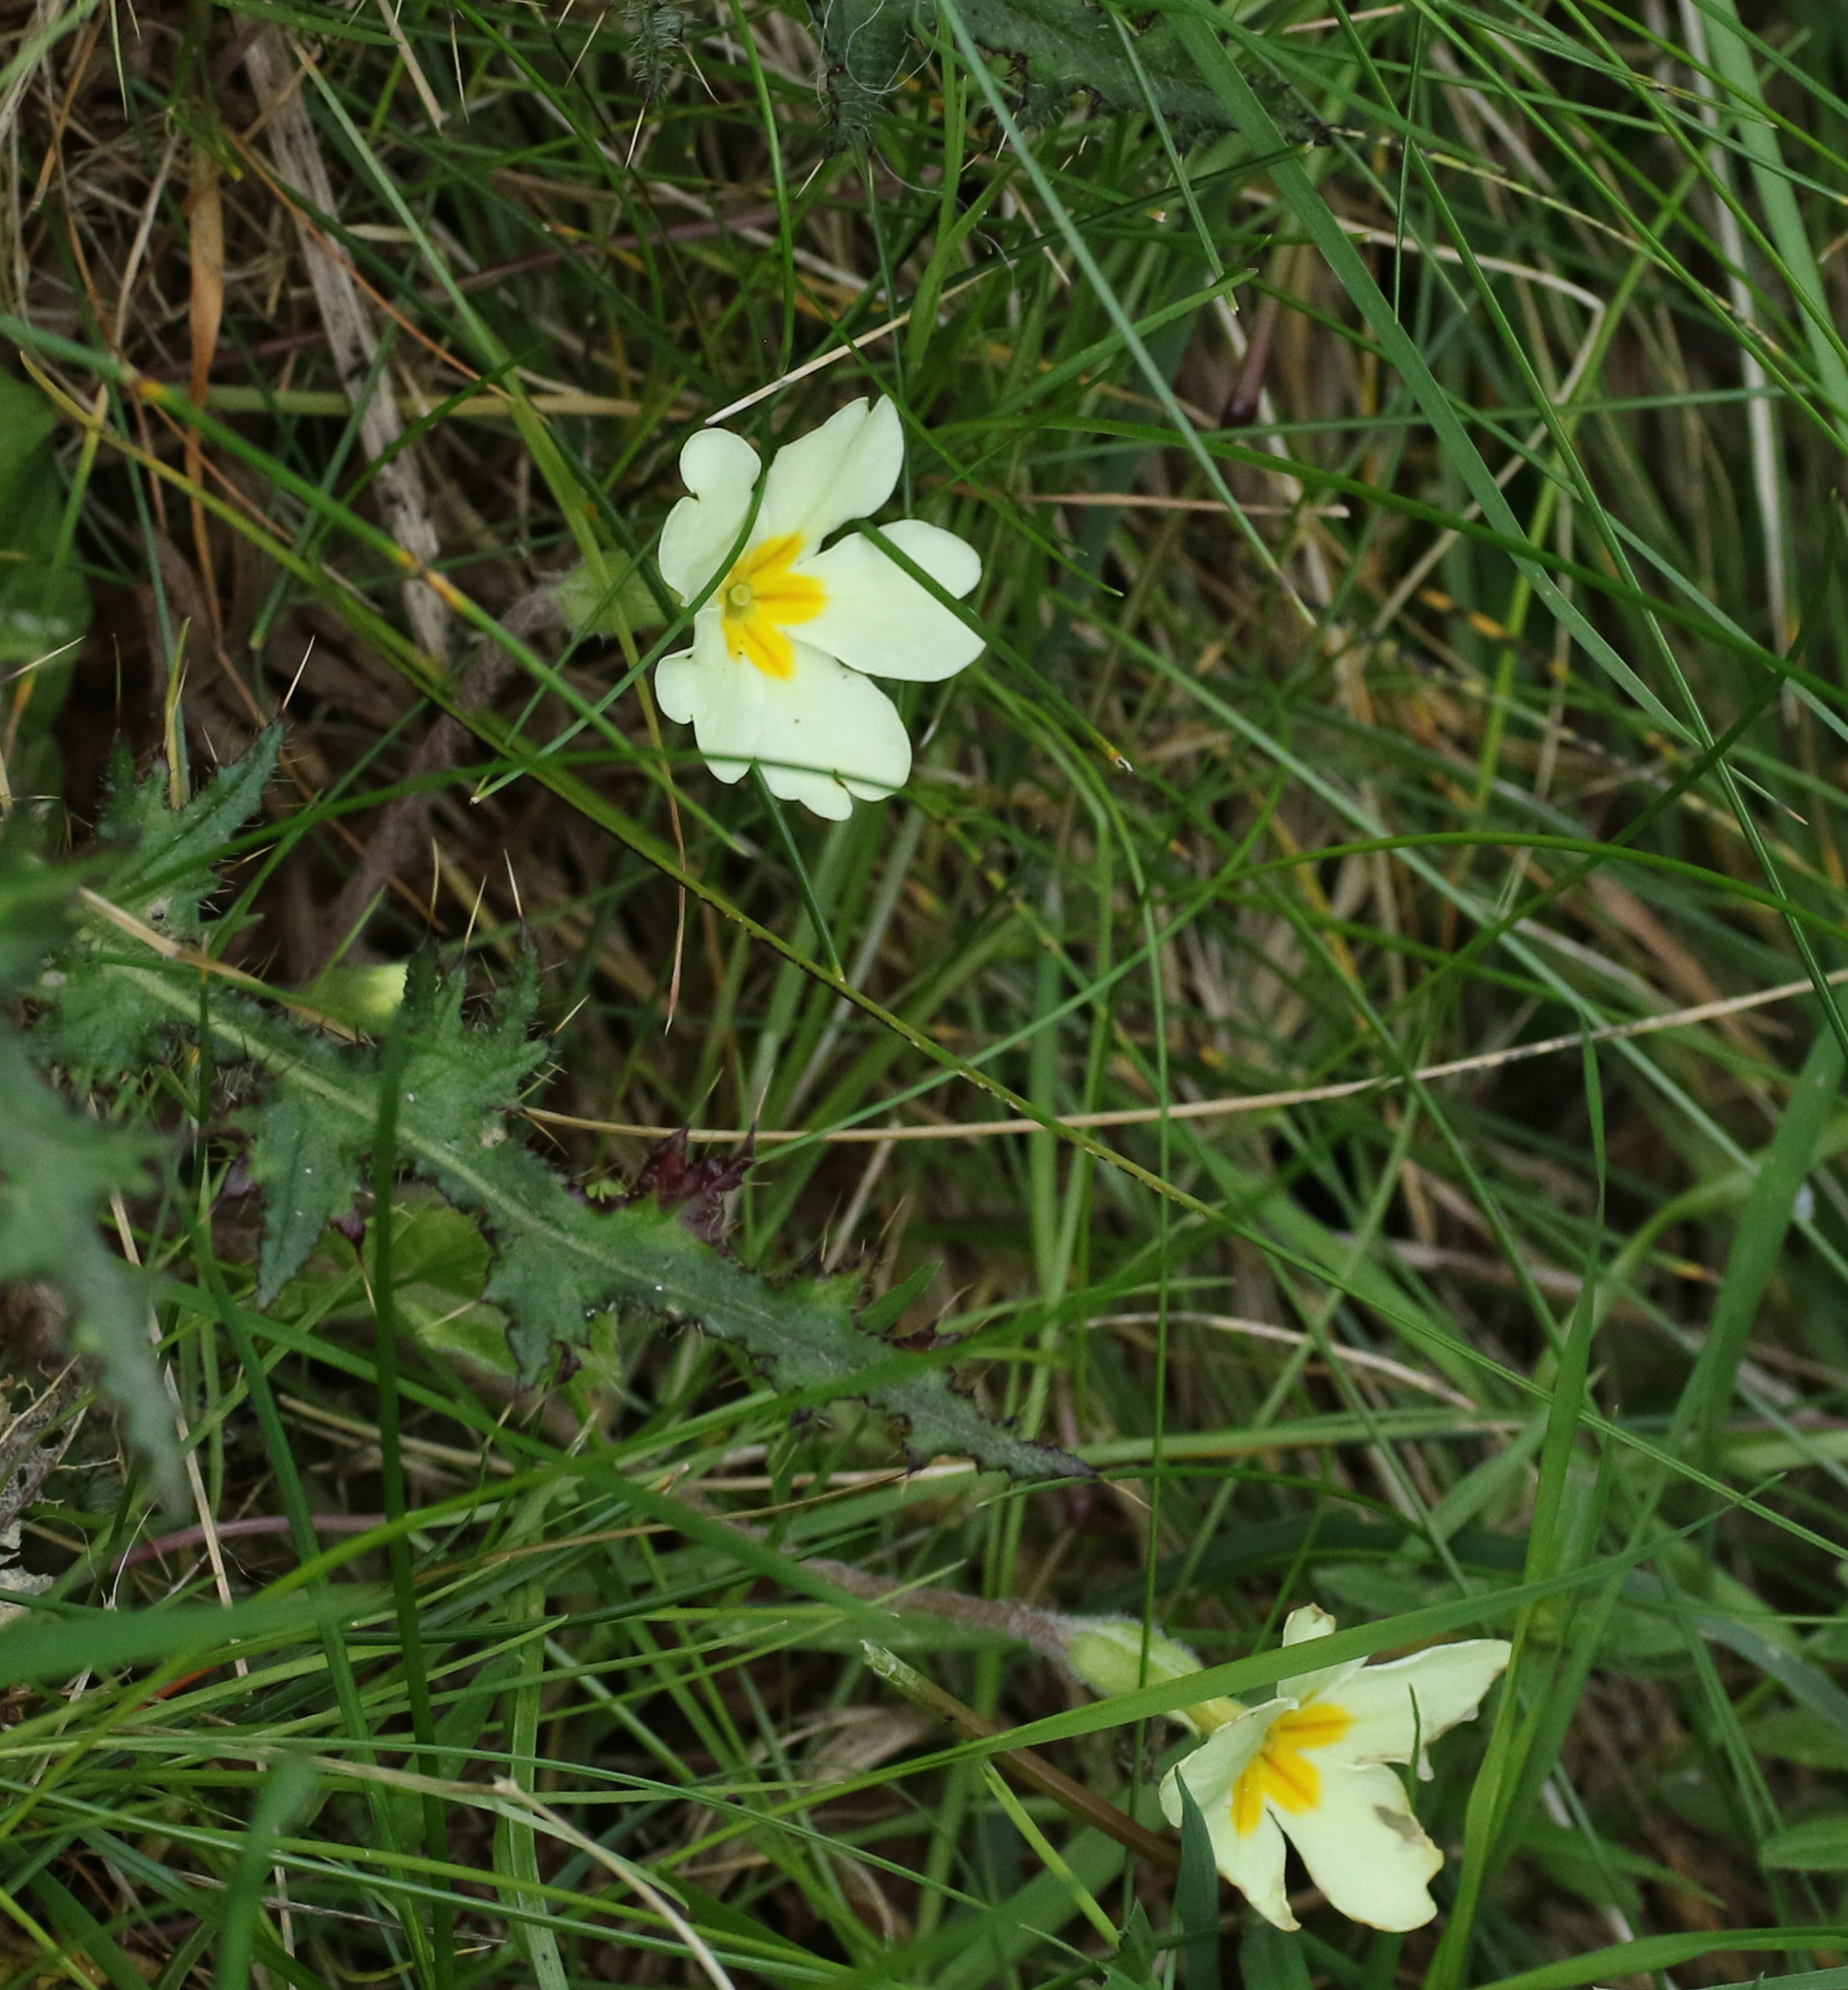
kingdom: Plantae
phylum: Tracheophyta
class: Magnoliopsida
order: Ericales
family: Primulaceae
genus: Primula
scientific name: Primula vulgaris
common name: Primrose
